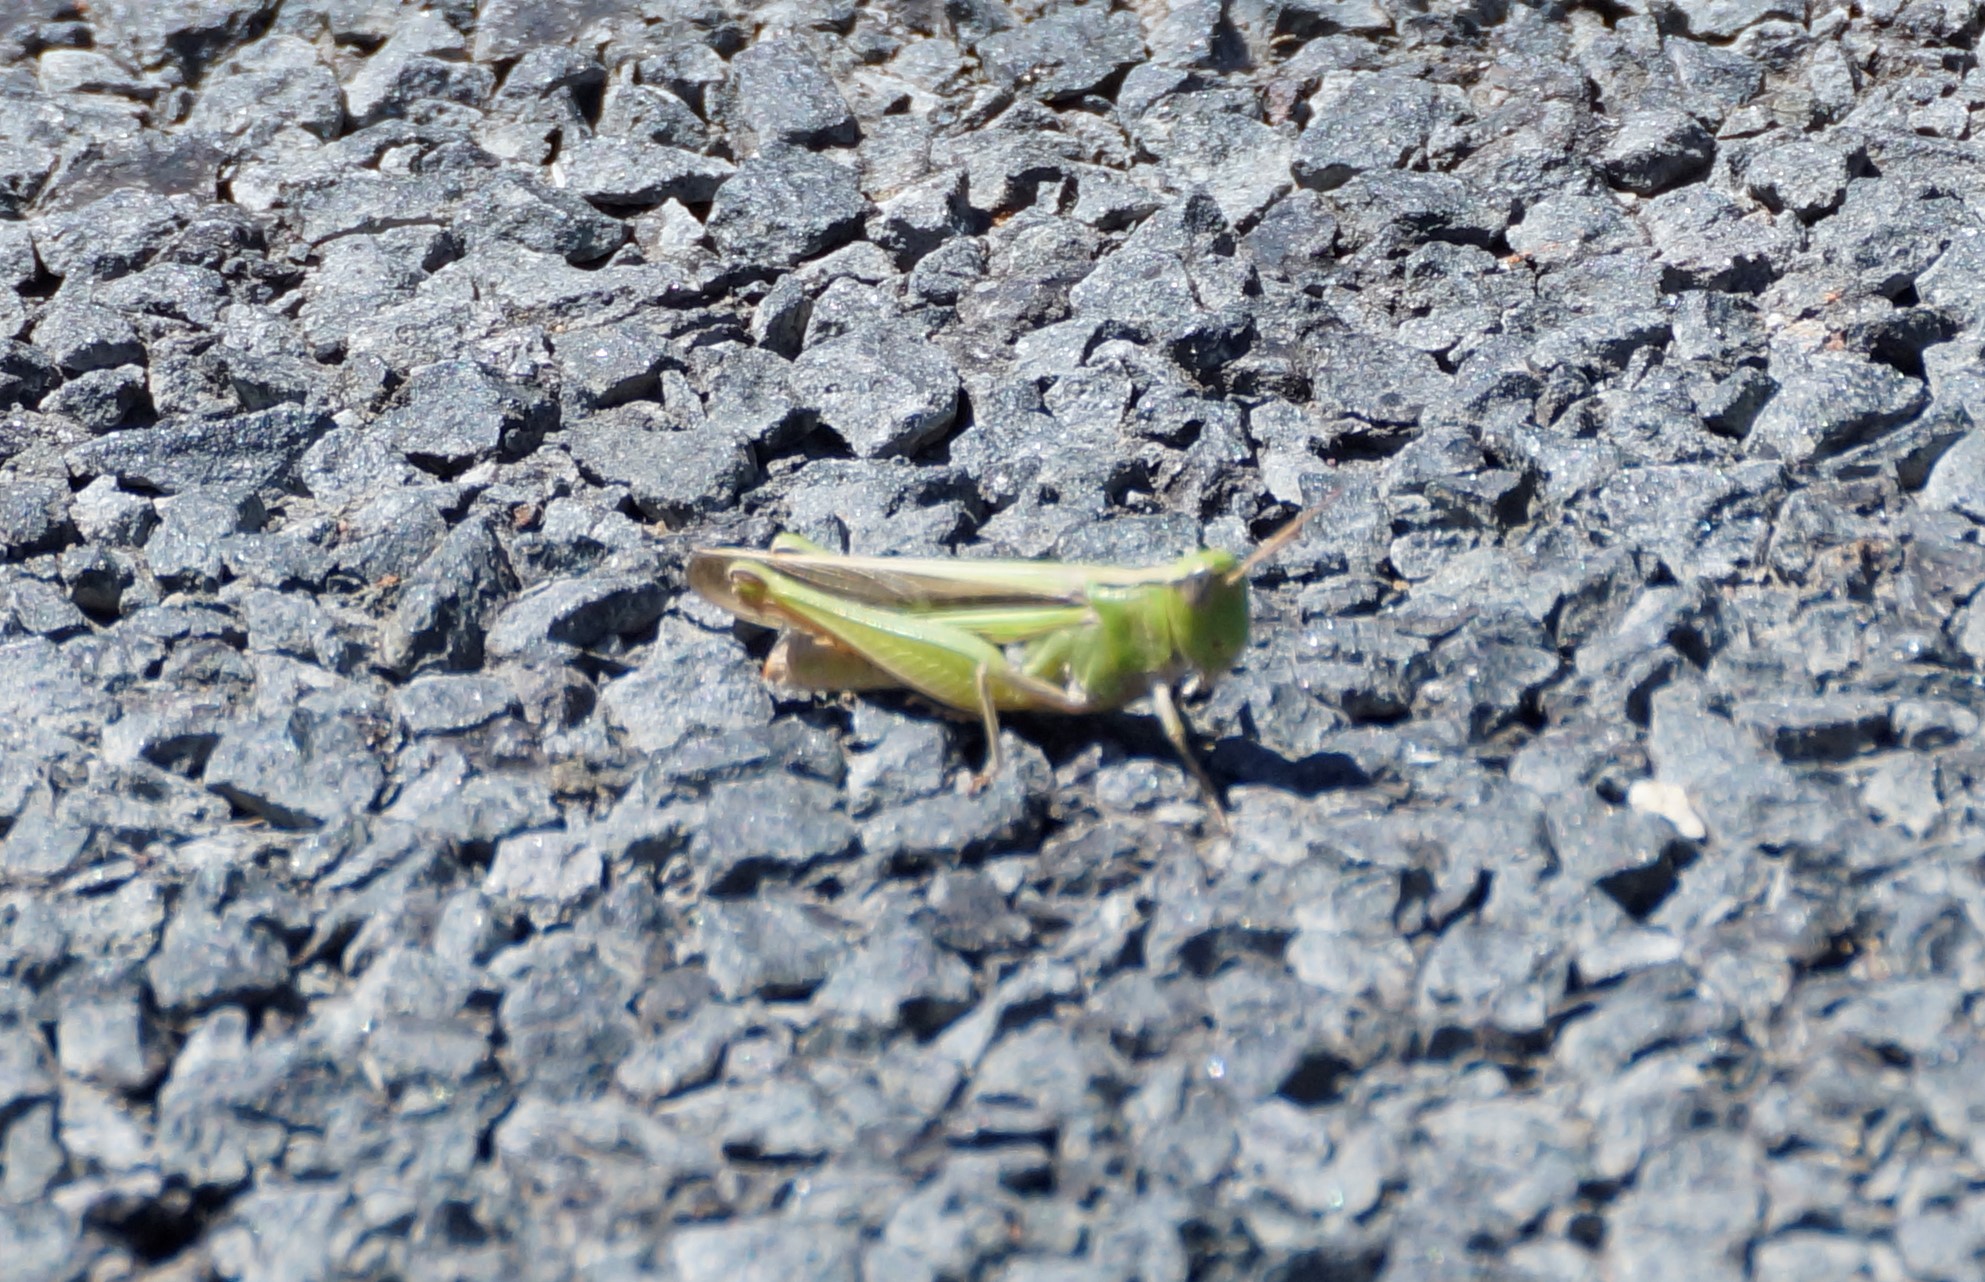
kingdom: Animalia
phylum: Arthropoda
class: Insecta
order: Orthoptera
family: Acrididae
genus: Schizobothrus
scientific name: Schizobothrus flavovittatus
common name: Disappearing grasshopper
